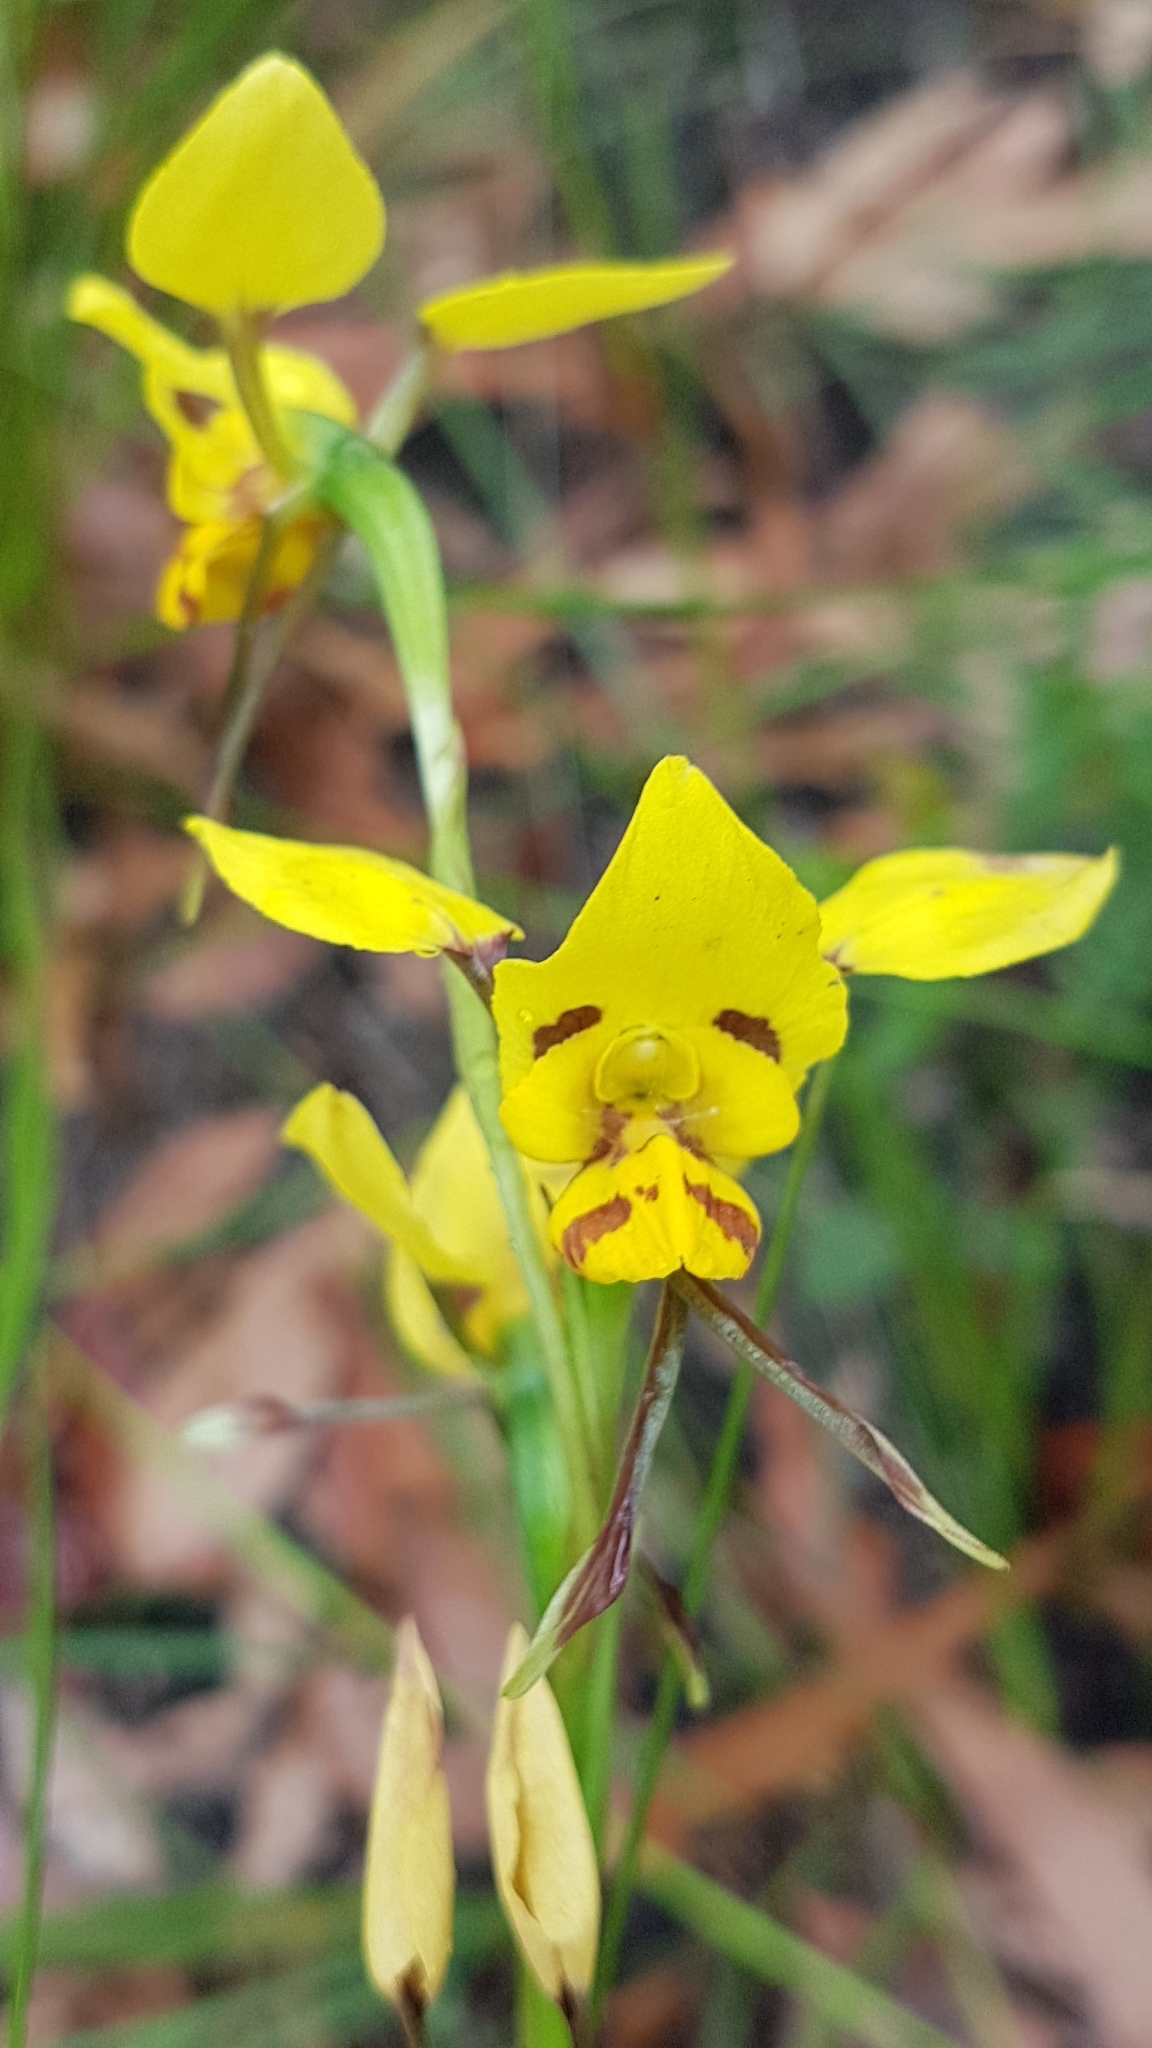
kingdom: Plantae
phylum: Tracheophyta
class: Liliopsida
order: Asparagales
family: Orchidaceae
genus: Diuris
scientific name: Diuris sulphurea
